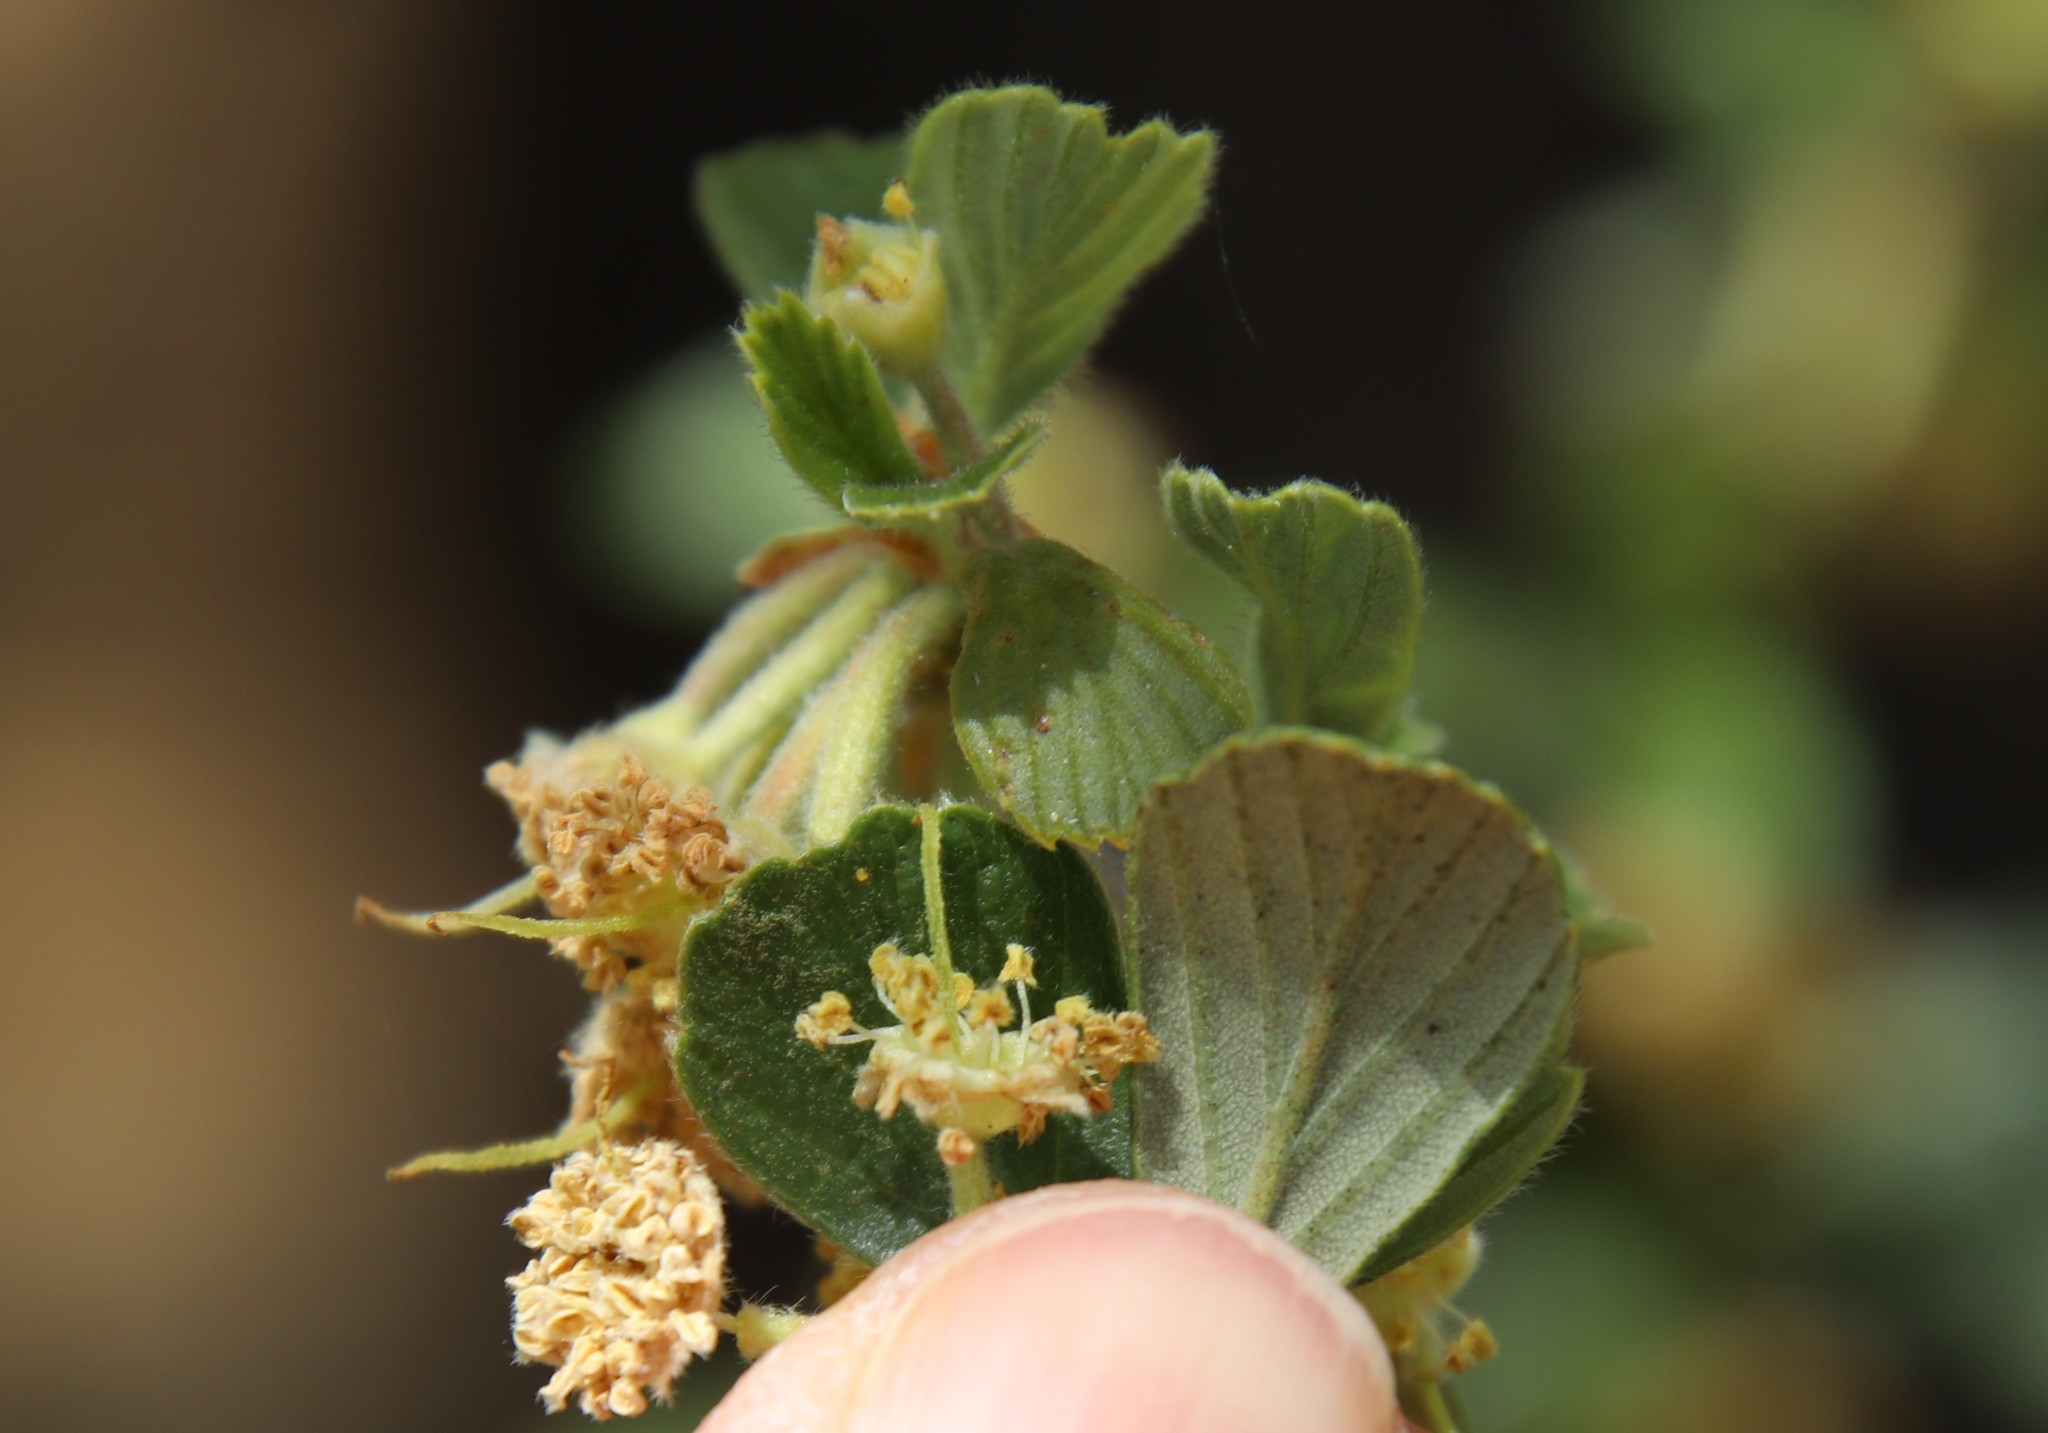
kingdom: Plantae
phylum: Tracheophyta
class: Magnoliopsida
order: Rosales
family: Rosaceae
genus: Cercocarpus
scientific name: Cercocarpus betuloides
